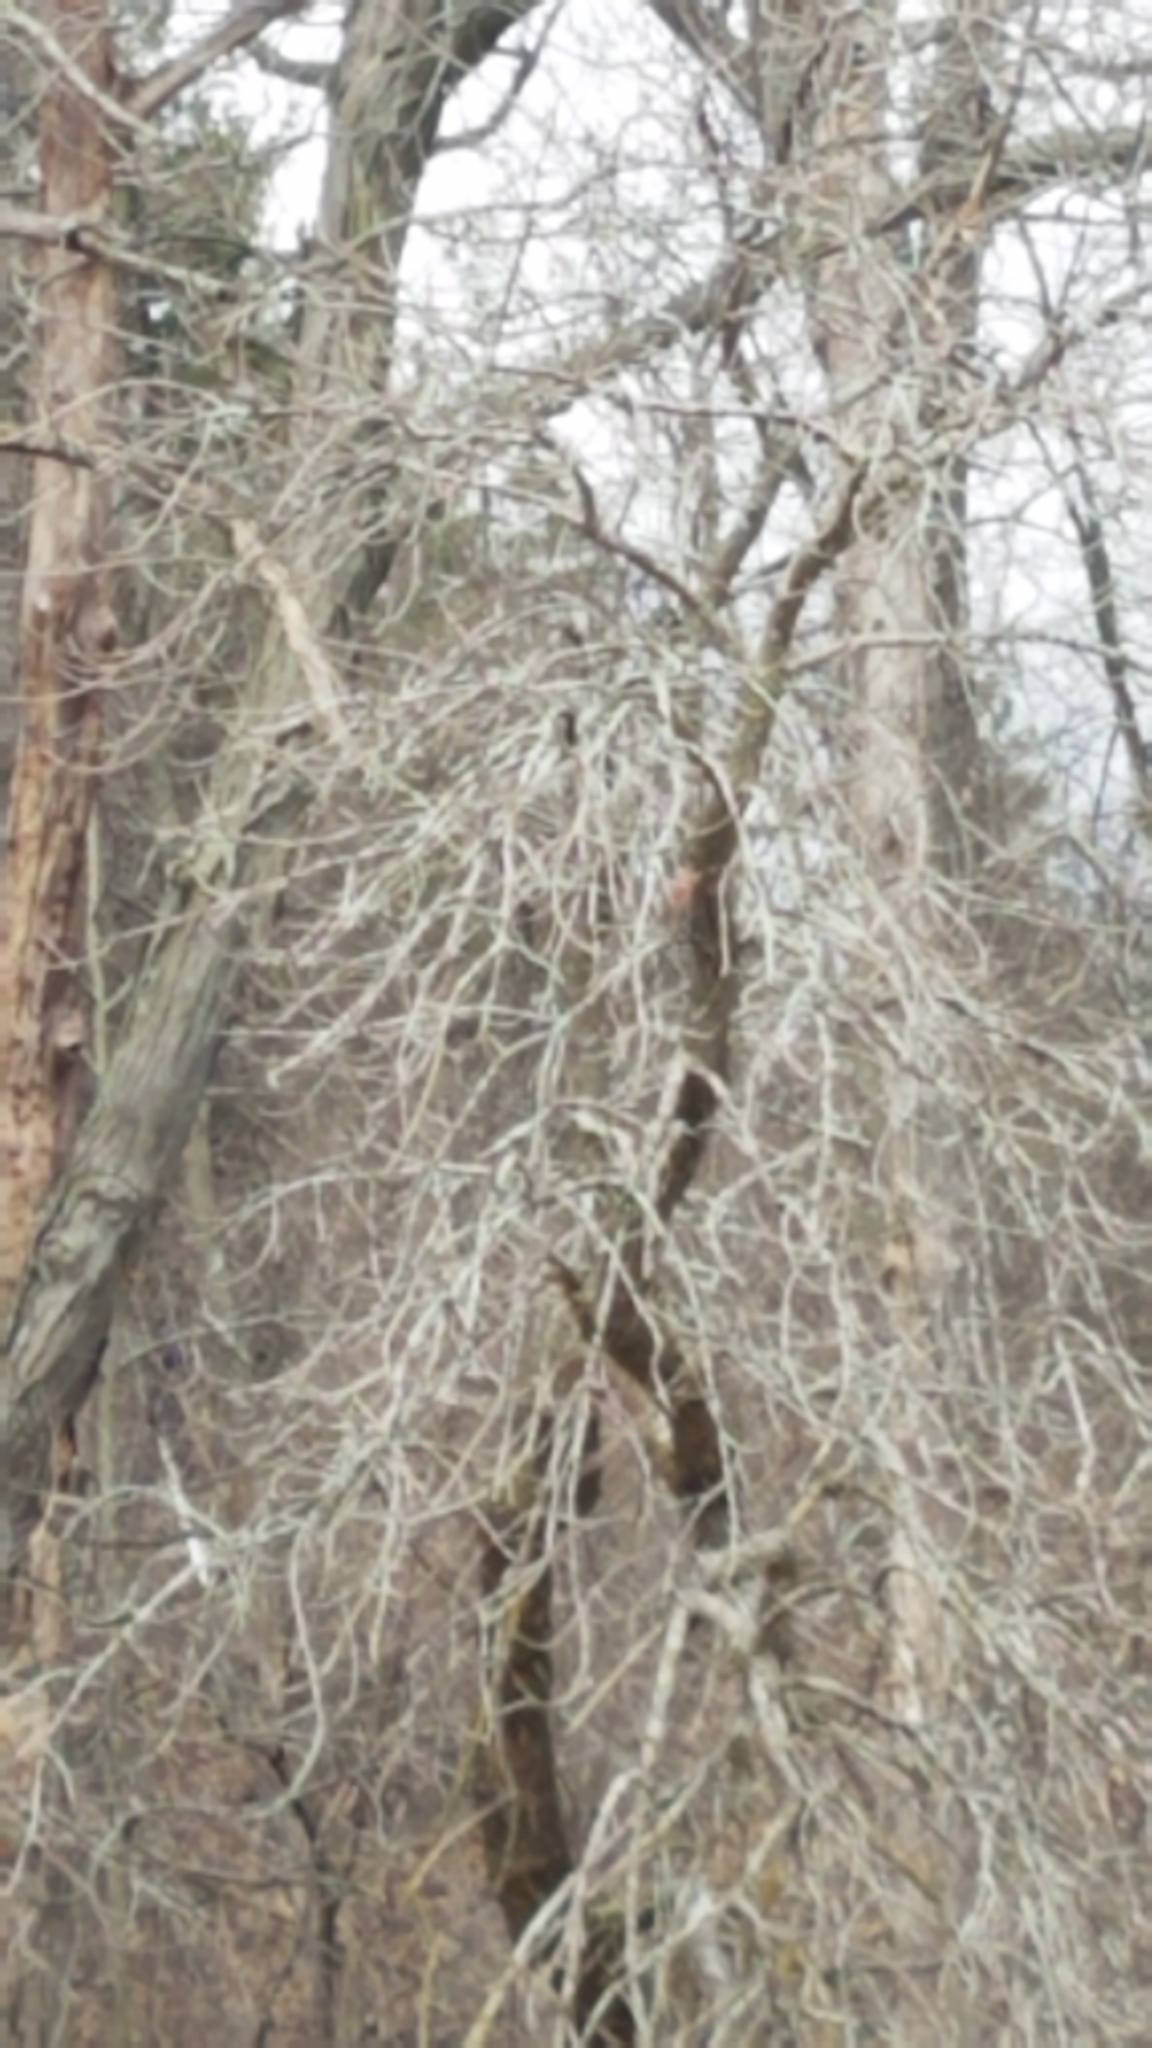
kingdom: Animalia
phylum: Chordata
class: Aves
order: Passeriformes
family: Cardinalidae
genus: Cardinalis
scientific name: Cardinalis cardinalis
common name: Northern cardinal
